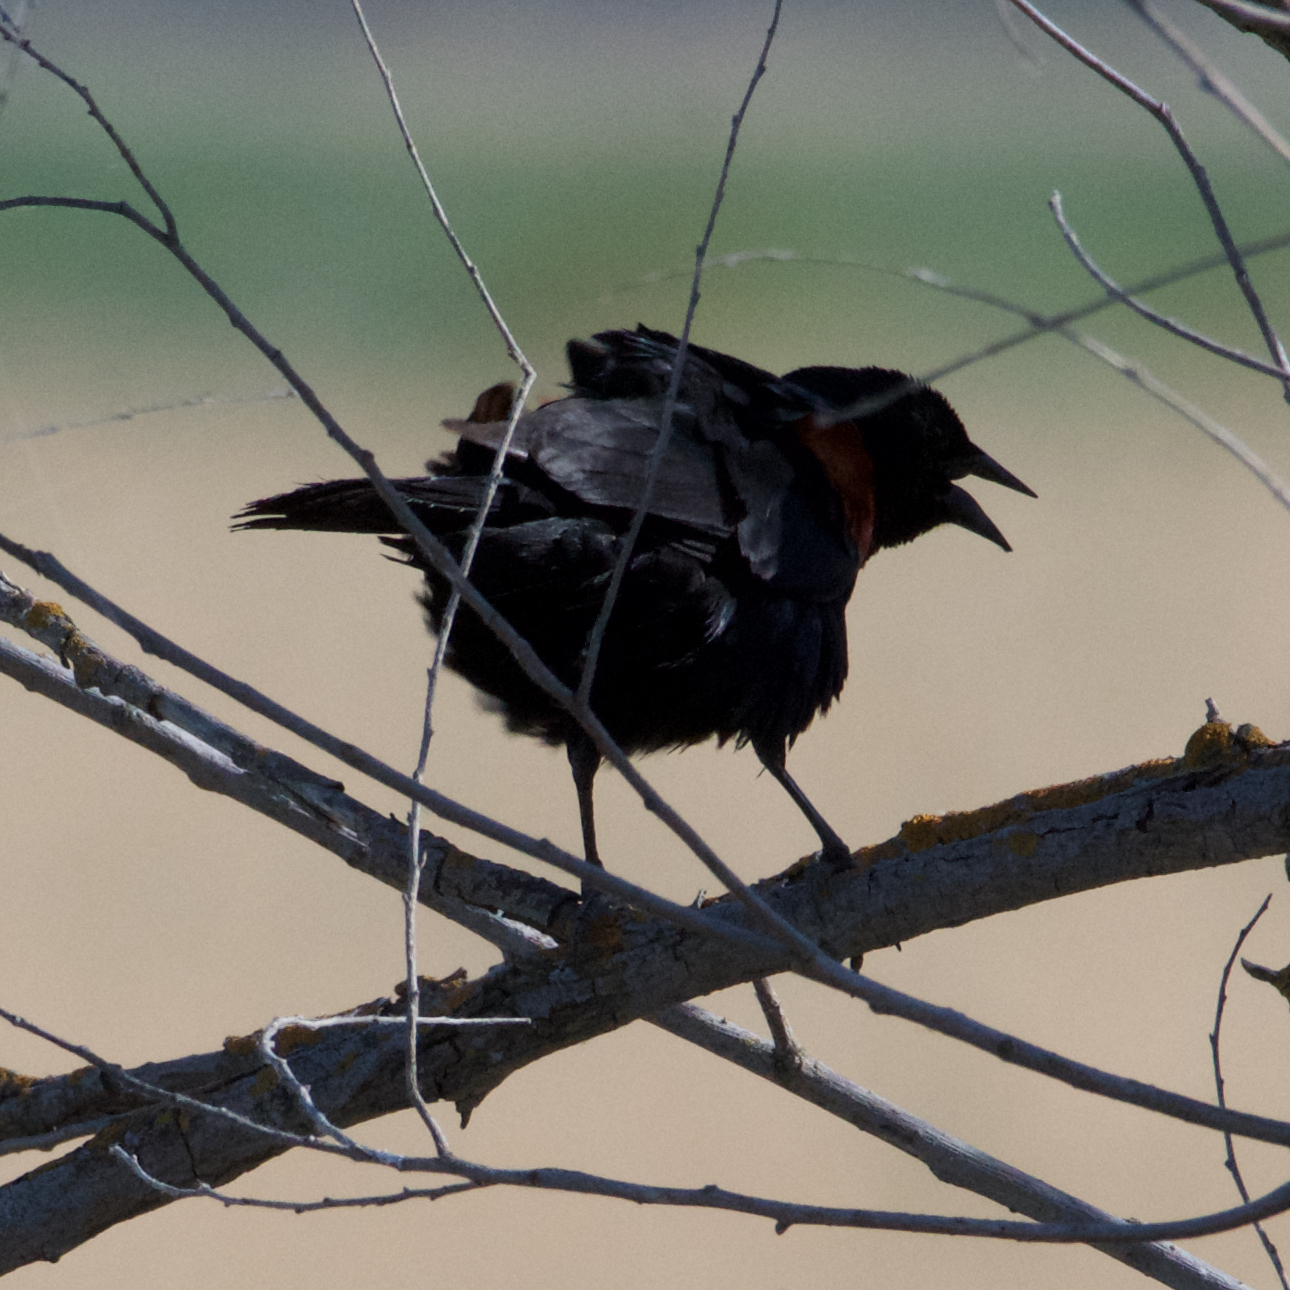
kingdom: Animalia
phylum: Chordata
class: Aves
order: Passeriformes
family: Icteridae
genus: Agelaius
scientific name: Agelaius phoeniceus
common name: Red-winged blackbird
